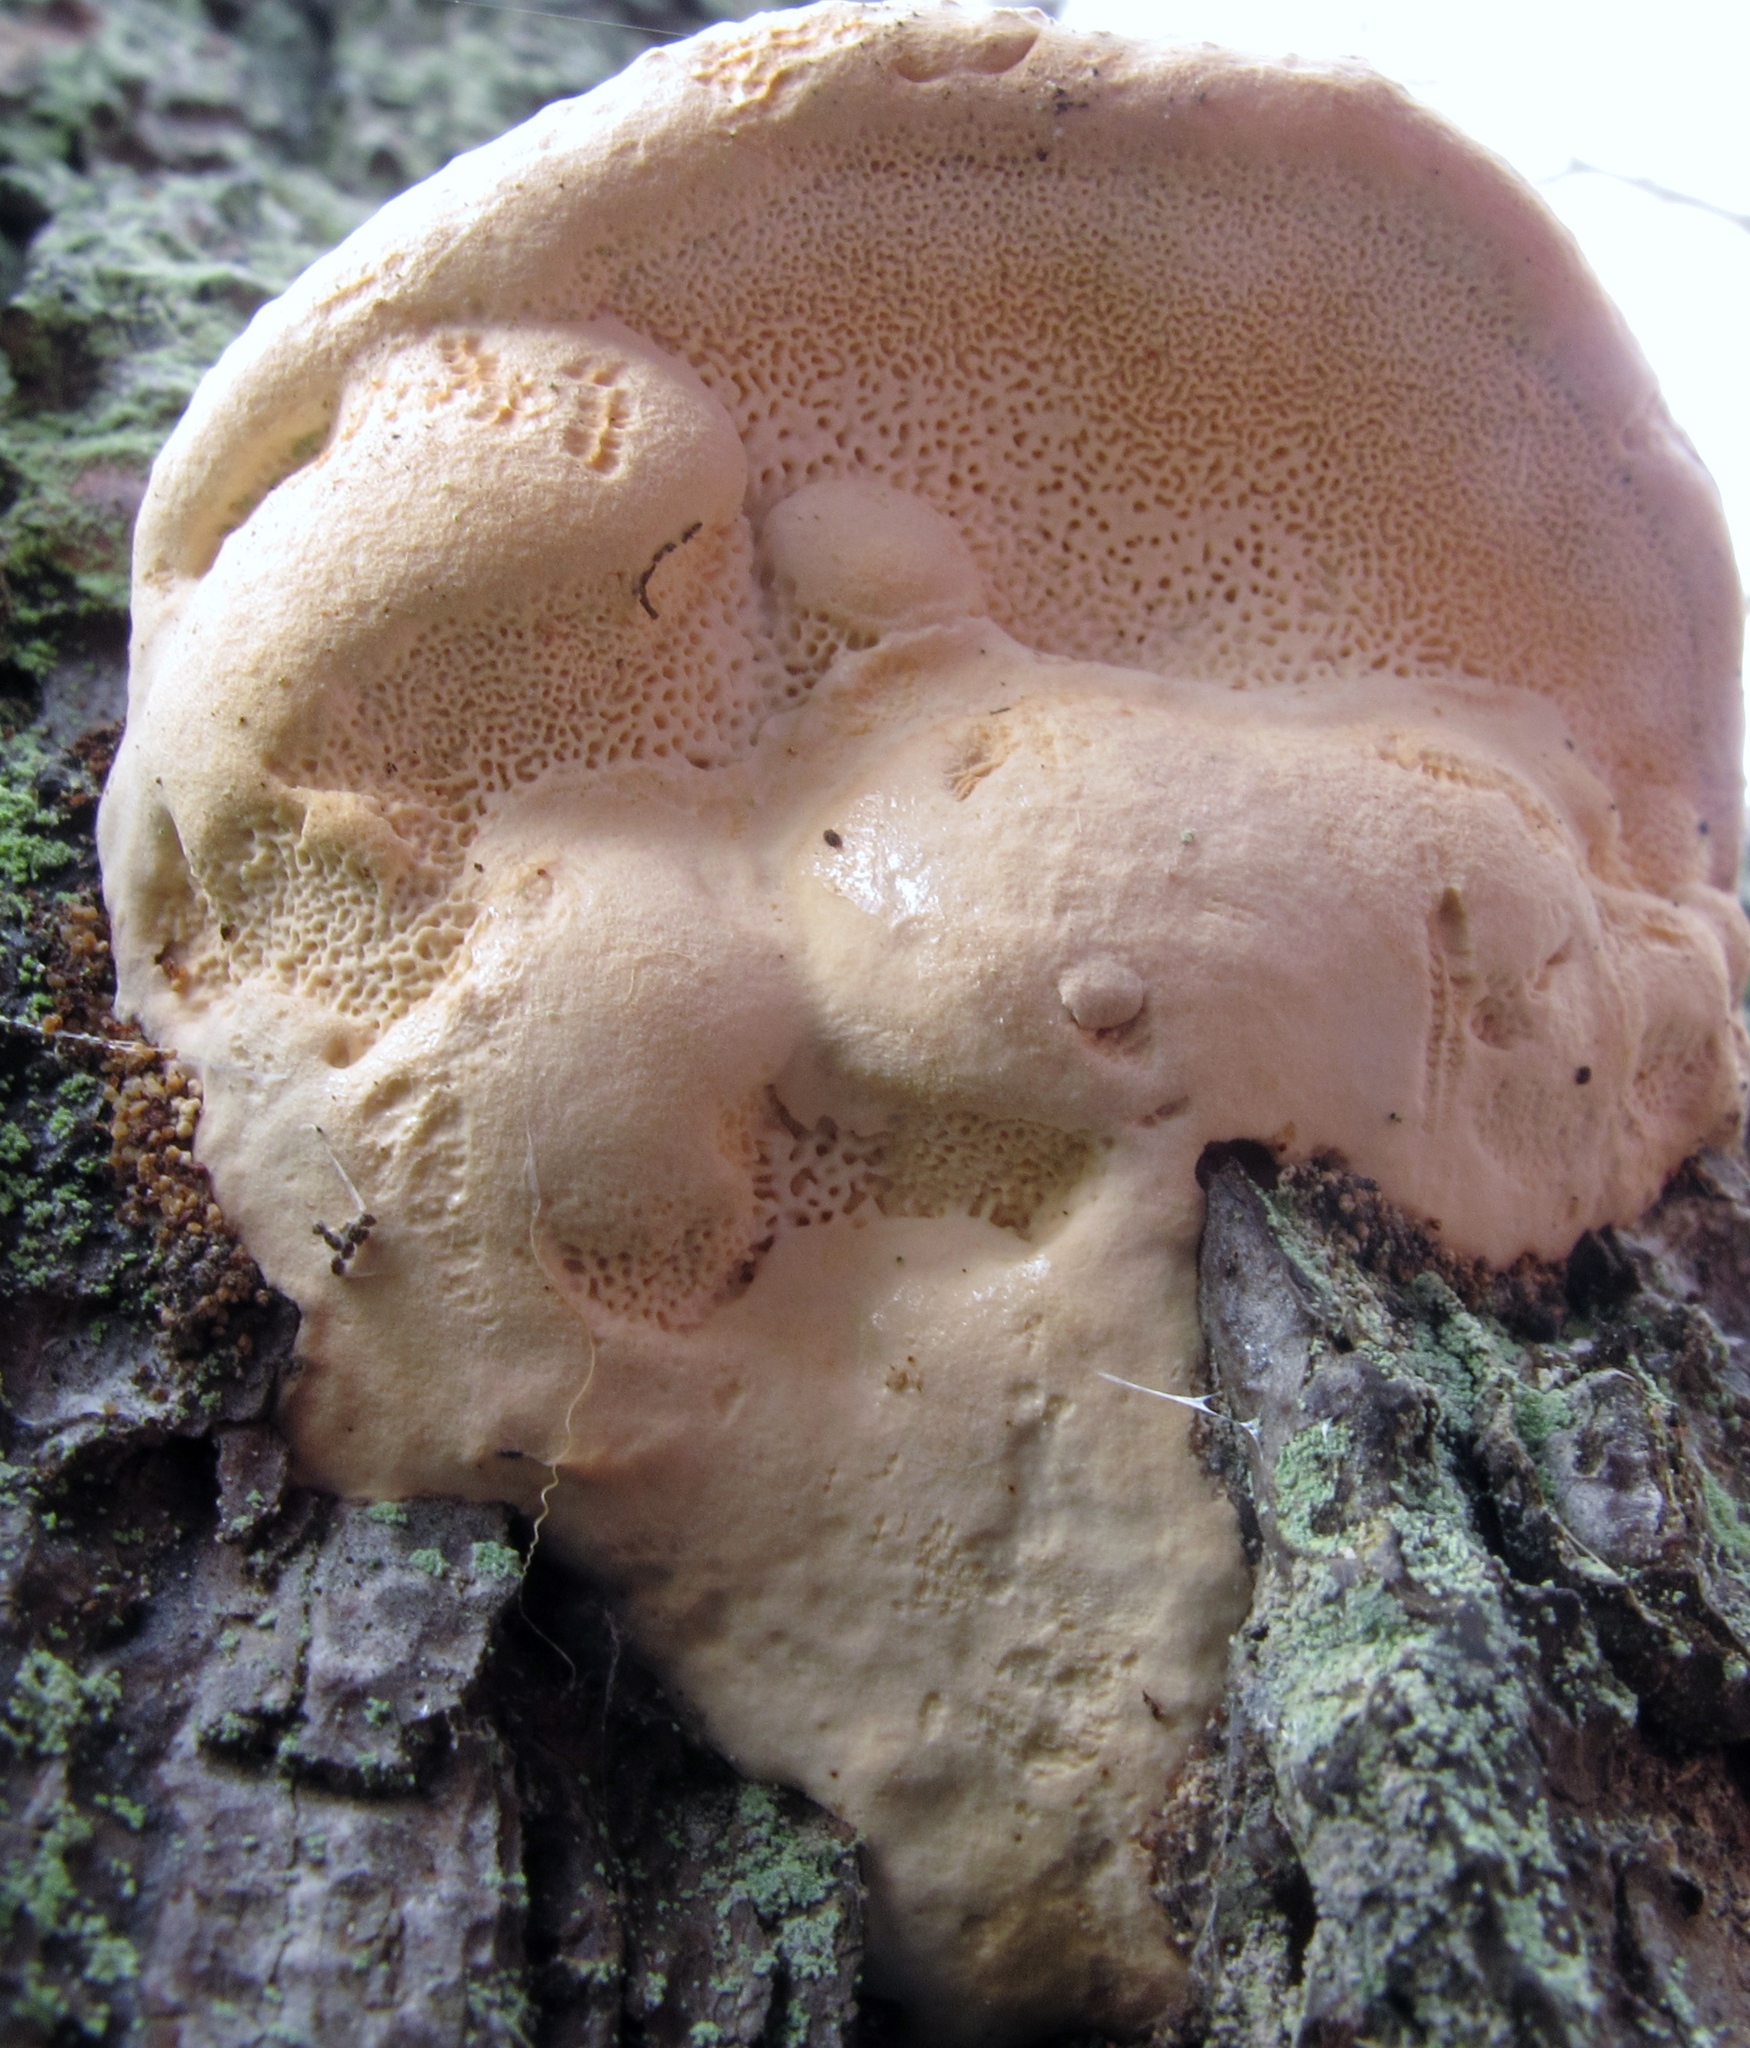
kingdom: Fungi
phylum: Basidiomycota
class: Agaricomycetes
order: Polyporales
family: Fomitopsidaceae
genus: Fomitopsis
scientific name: Fomitopsis mounceae
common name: Northern red belt
